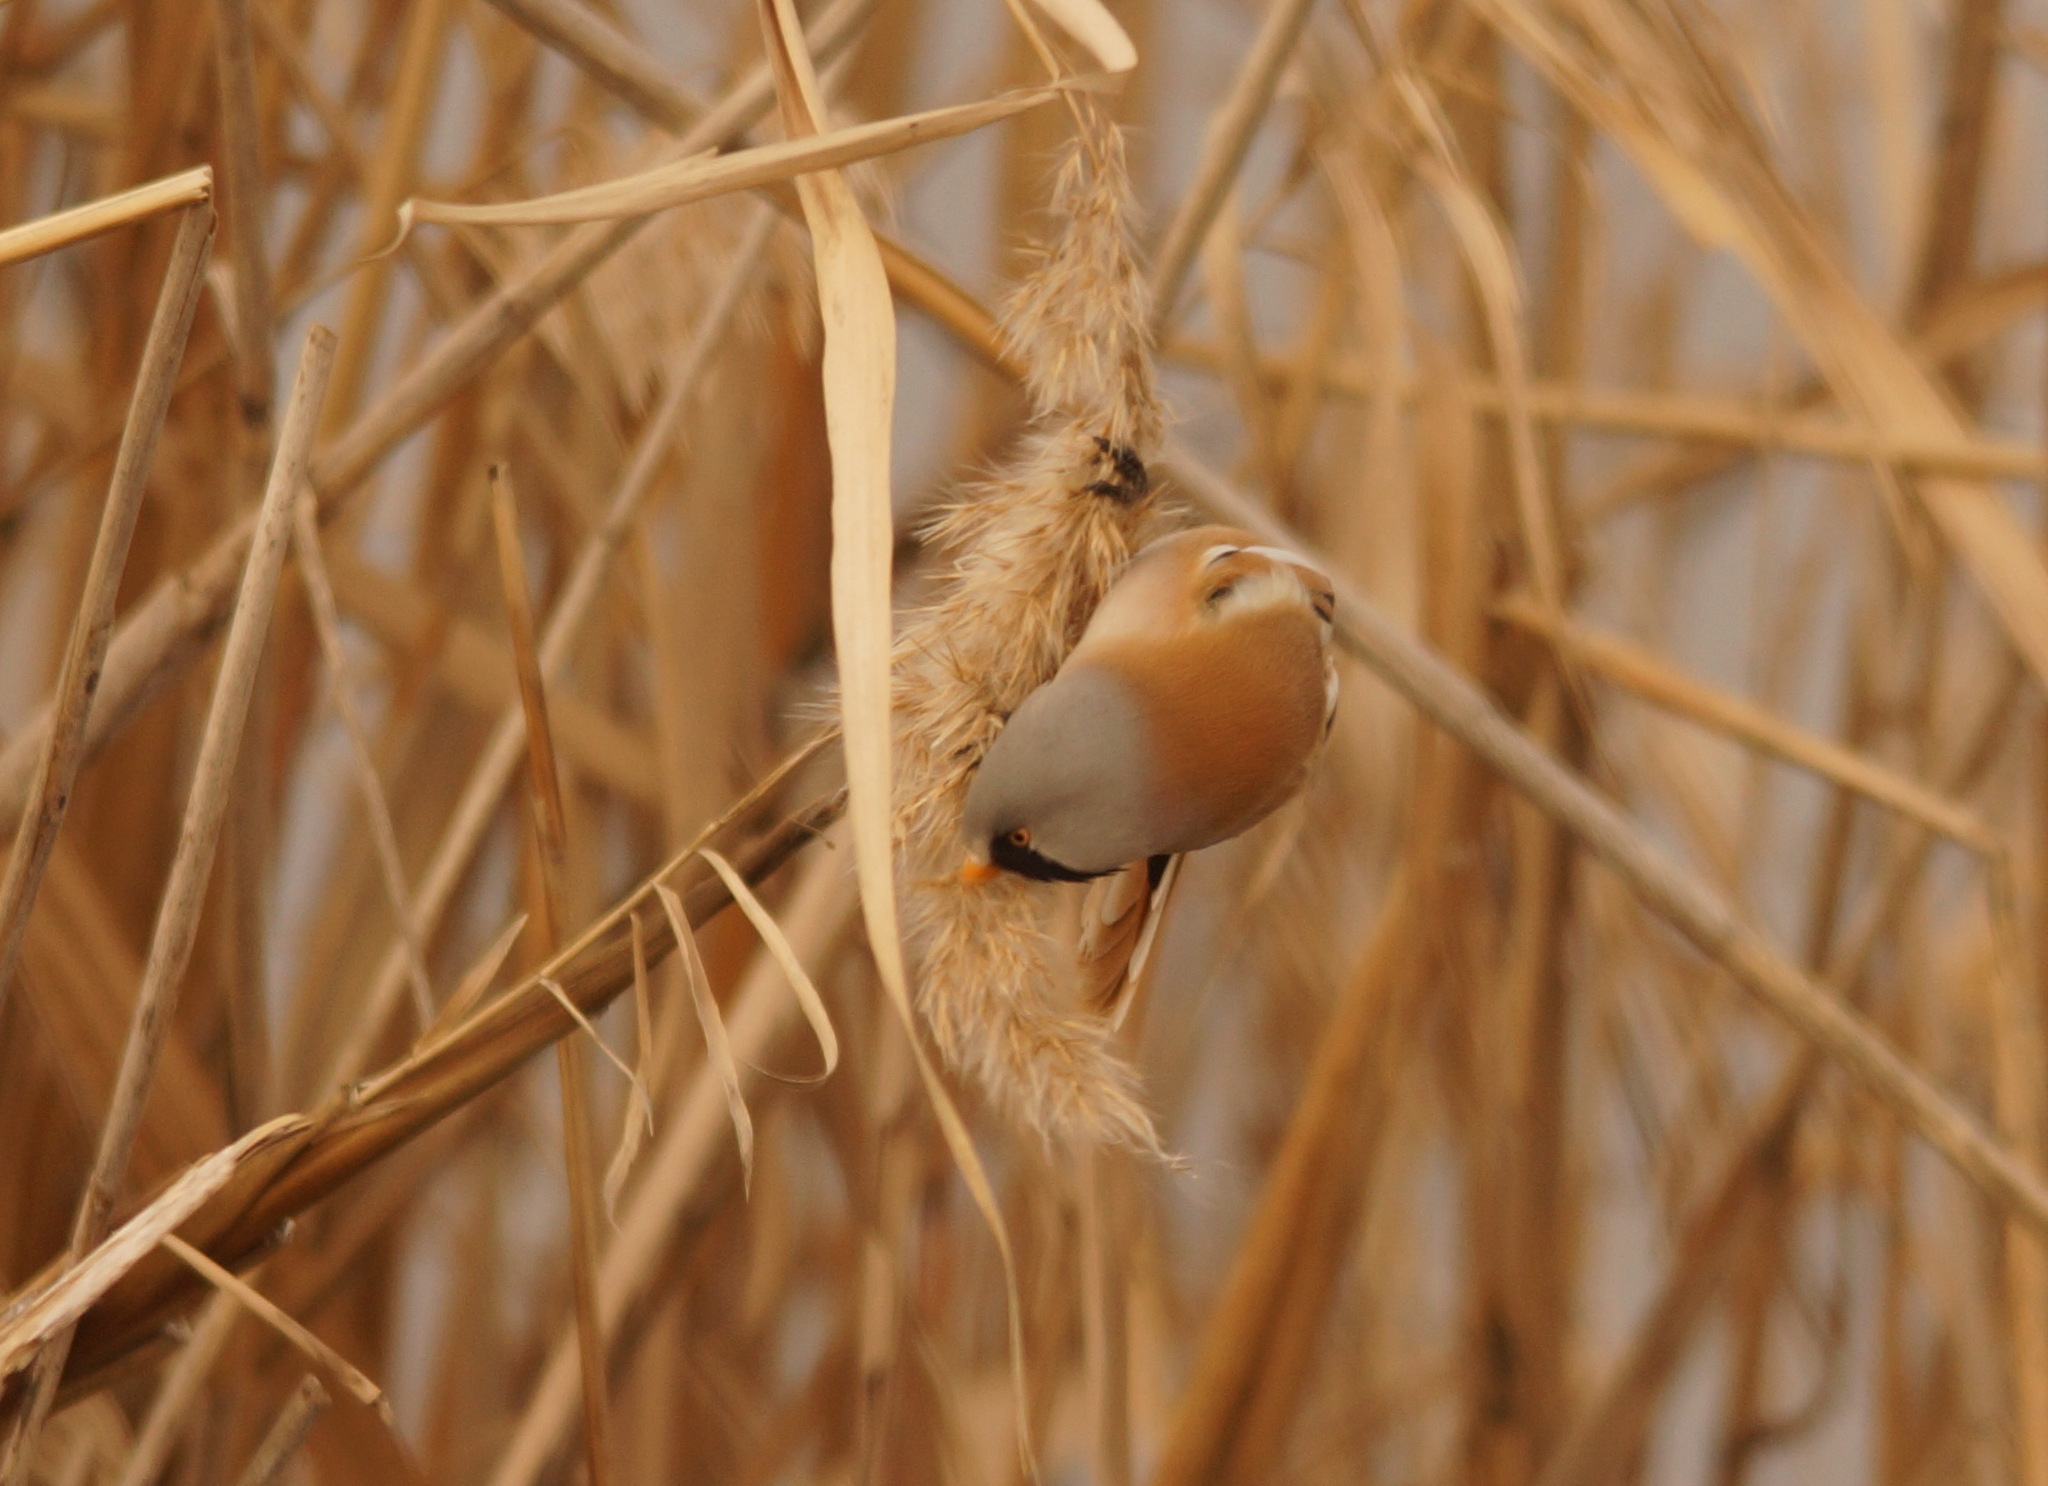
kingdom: Animalia
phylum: Chordata
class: Aves
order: Passeriformes
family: Panuridae
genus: Panurus
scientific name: Panurus biarmicus
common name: Bearded reedling
